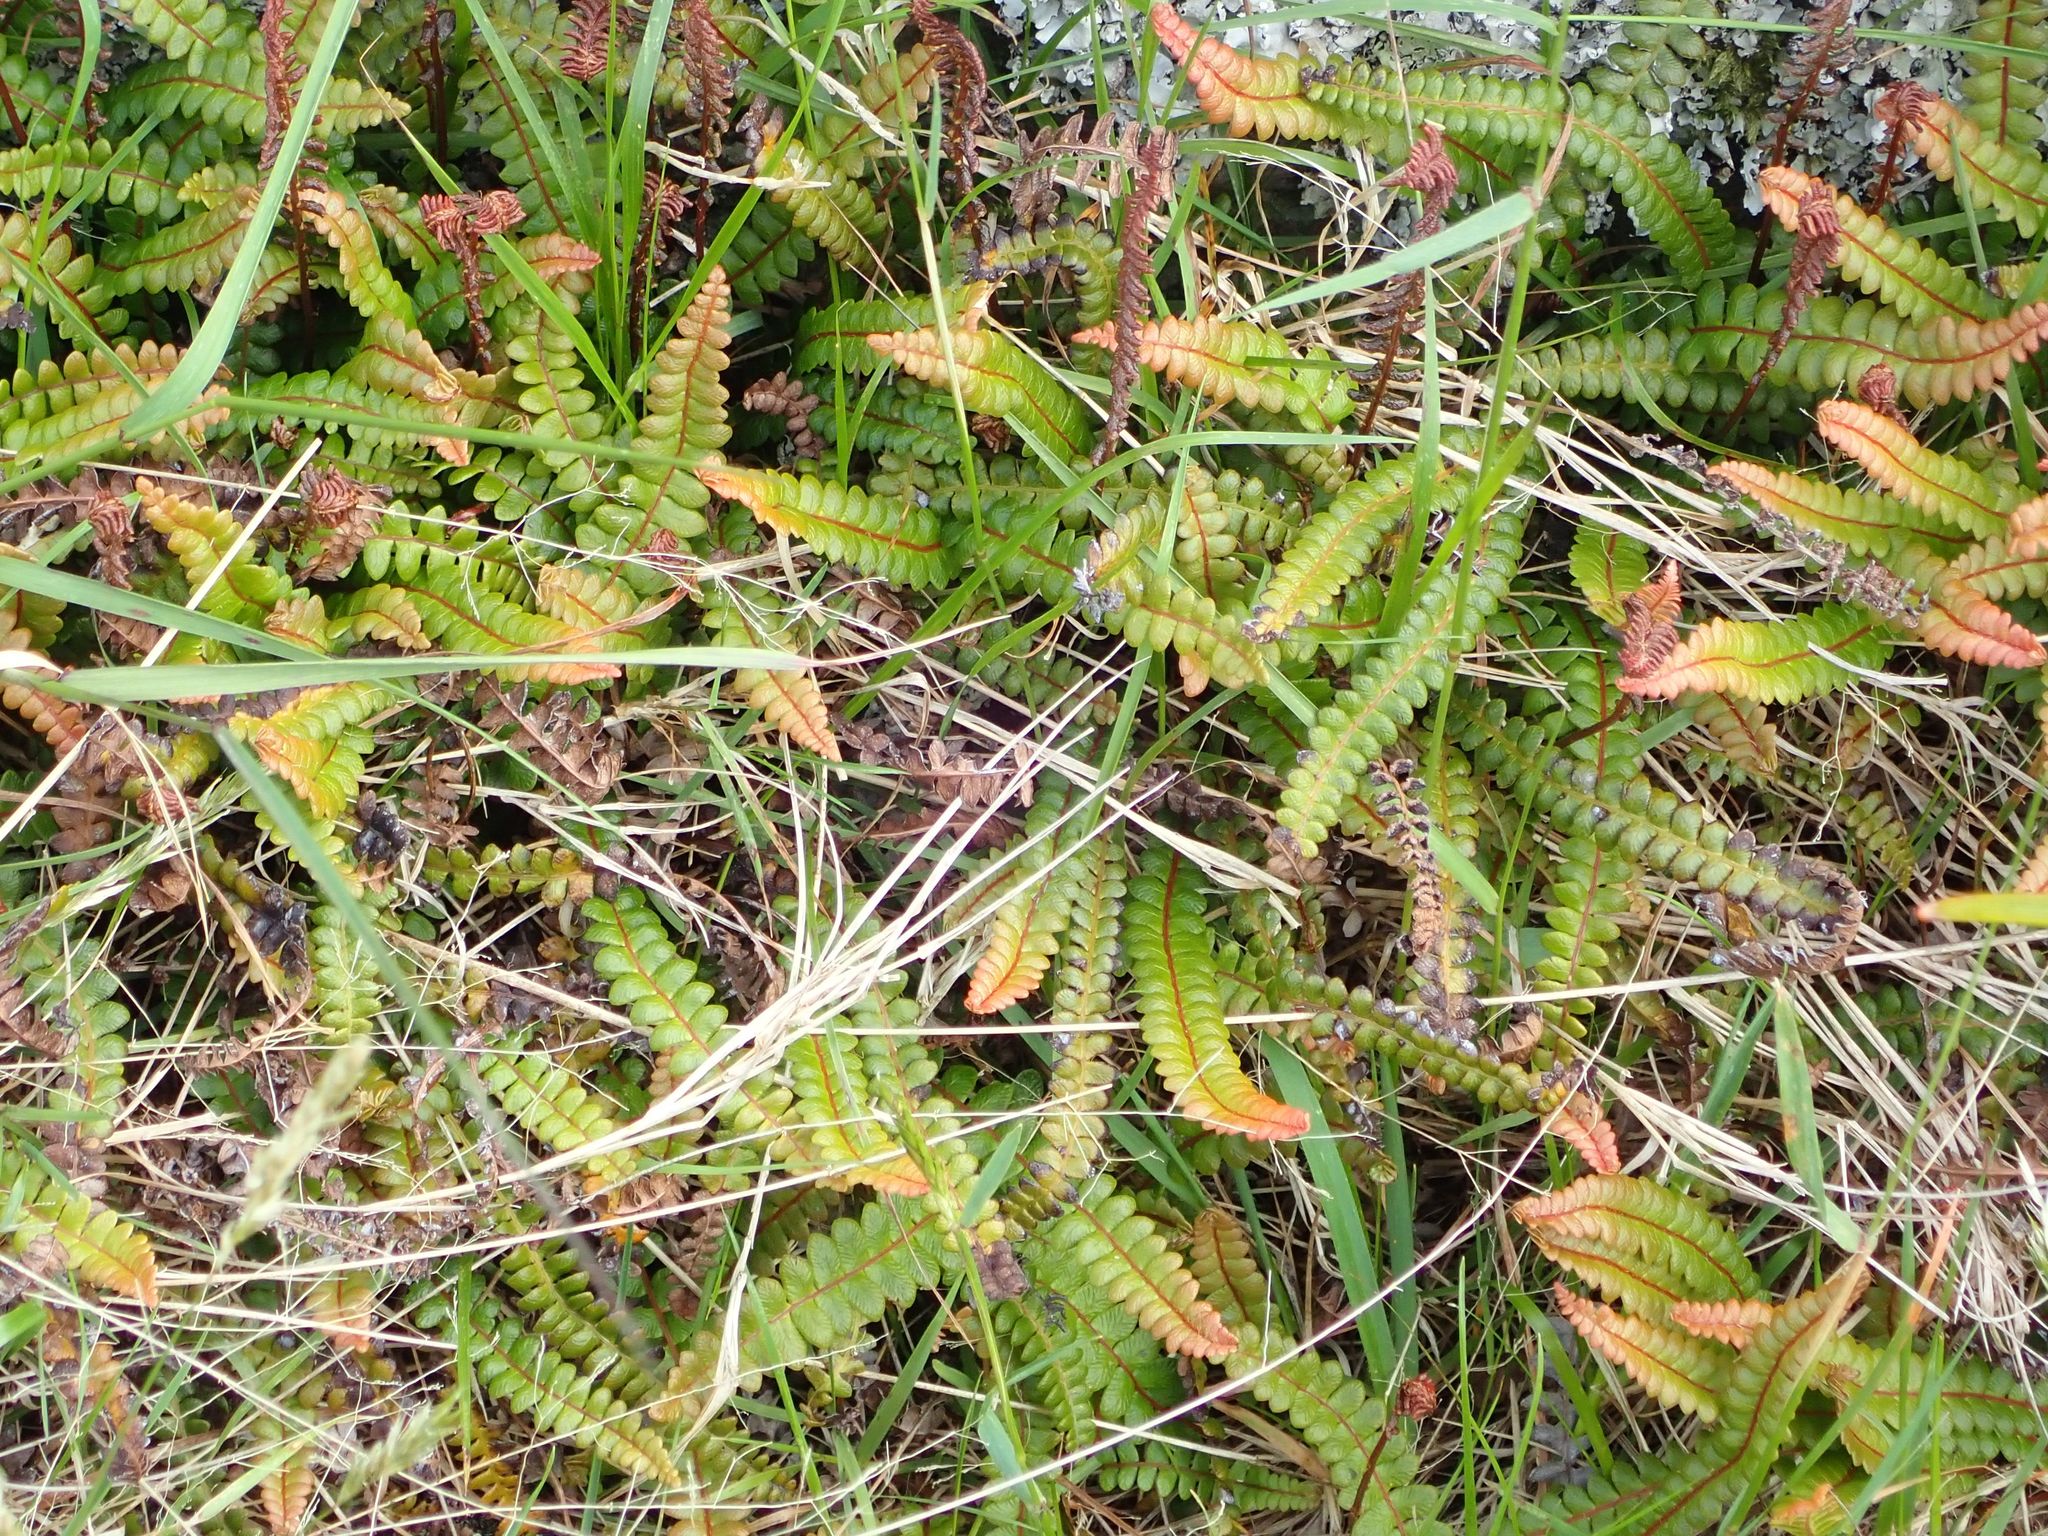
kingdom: Plantae
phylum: Tracheophyta
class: Polypodiopsida
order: Polypodiales
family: Blechnaceae
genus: Austroblechnum
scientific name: Austroblechnum penna-marina
